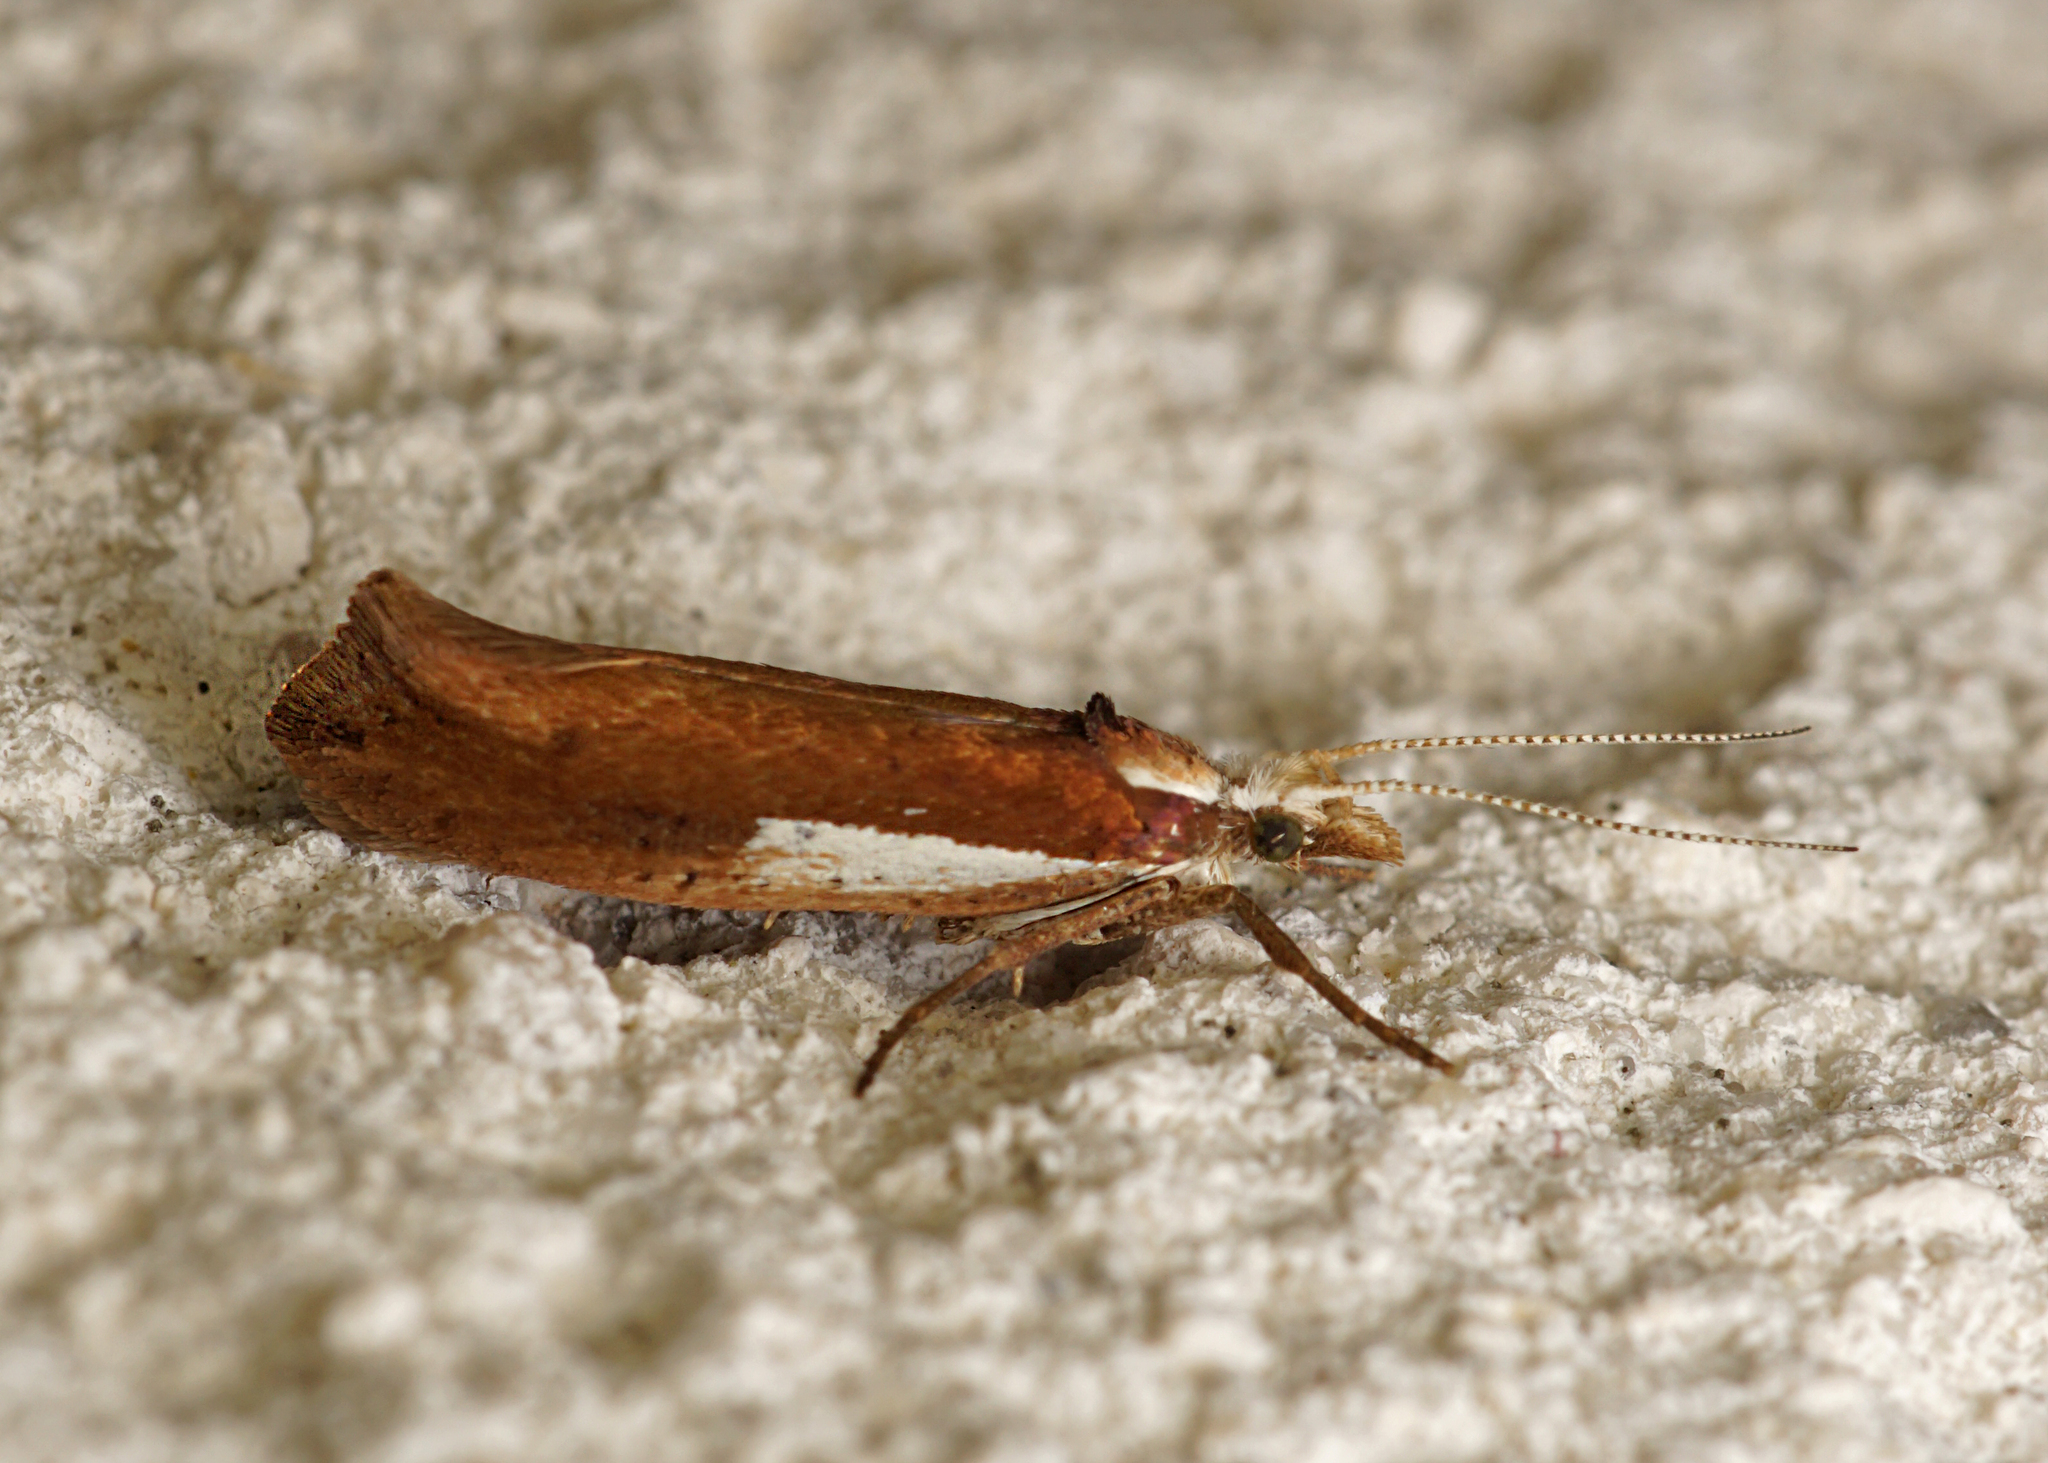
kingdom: Animalia
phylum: Arthropoda
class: Insecta
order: Lepidoptera
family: Ypsolophidae
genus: Ypsolopha
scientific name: Ypsolopha parenthesella
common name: White-shouldered smudge
